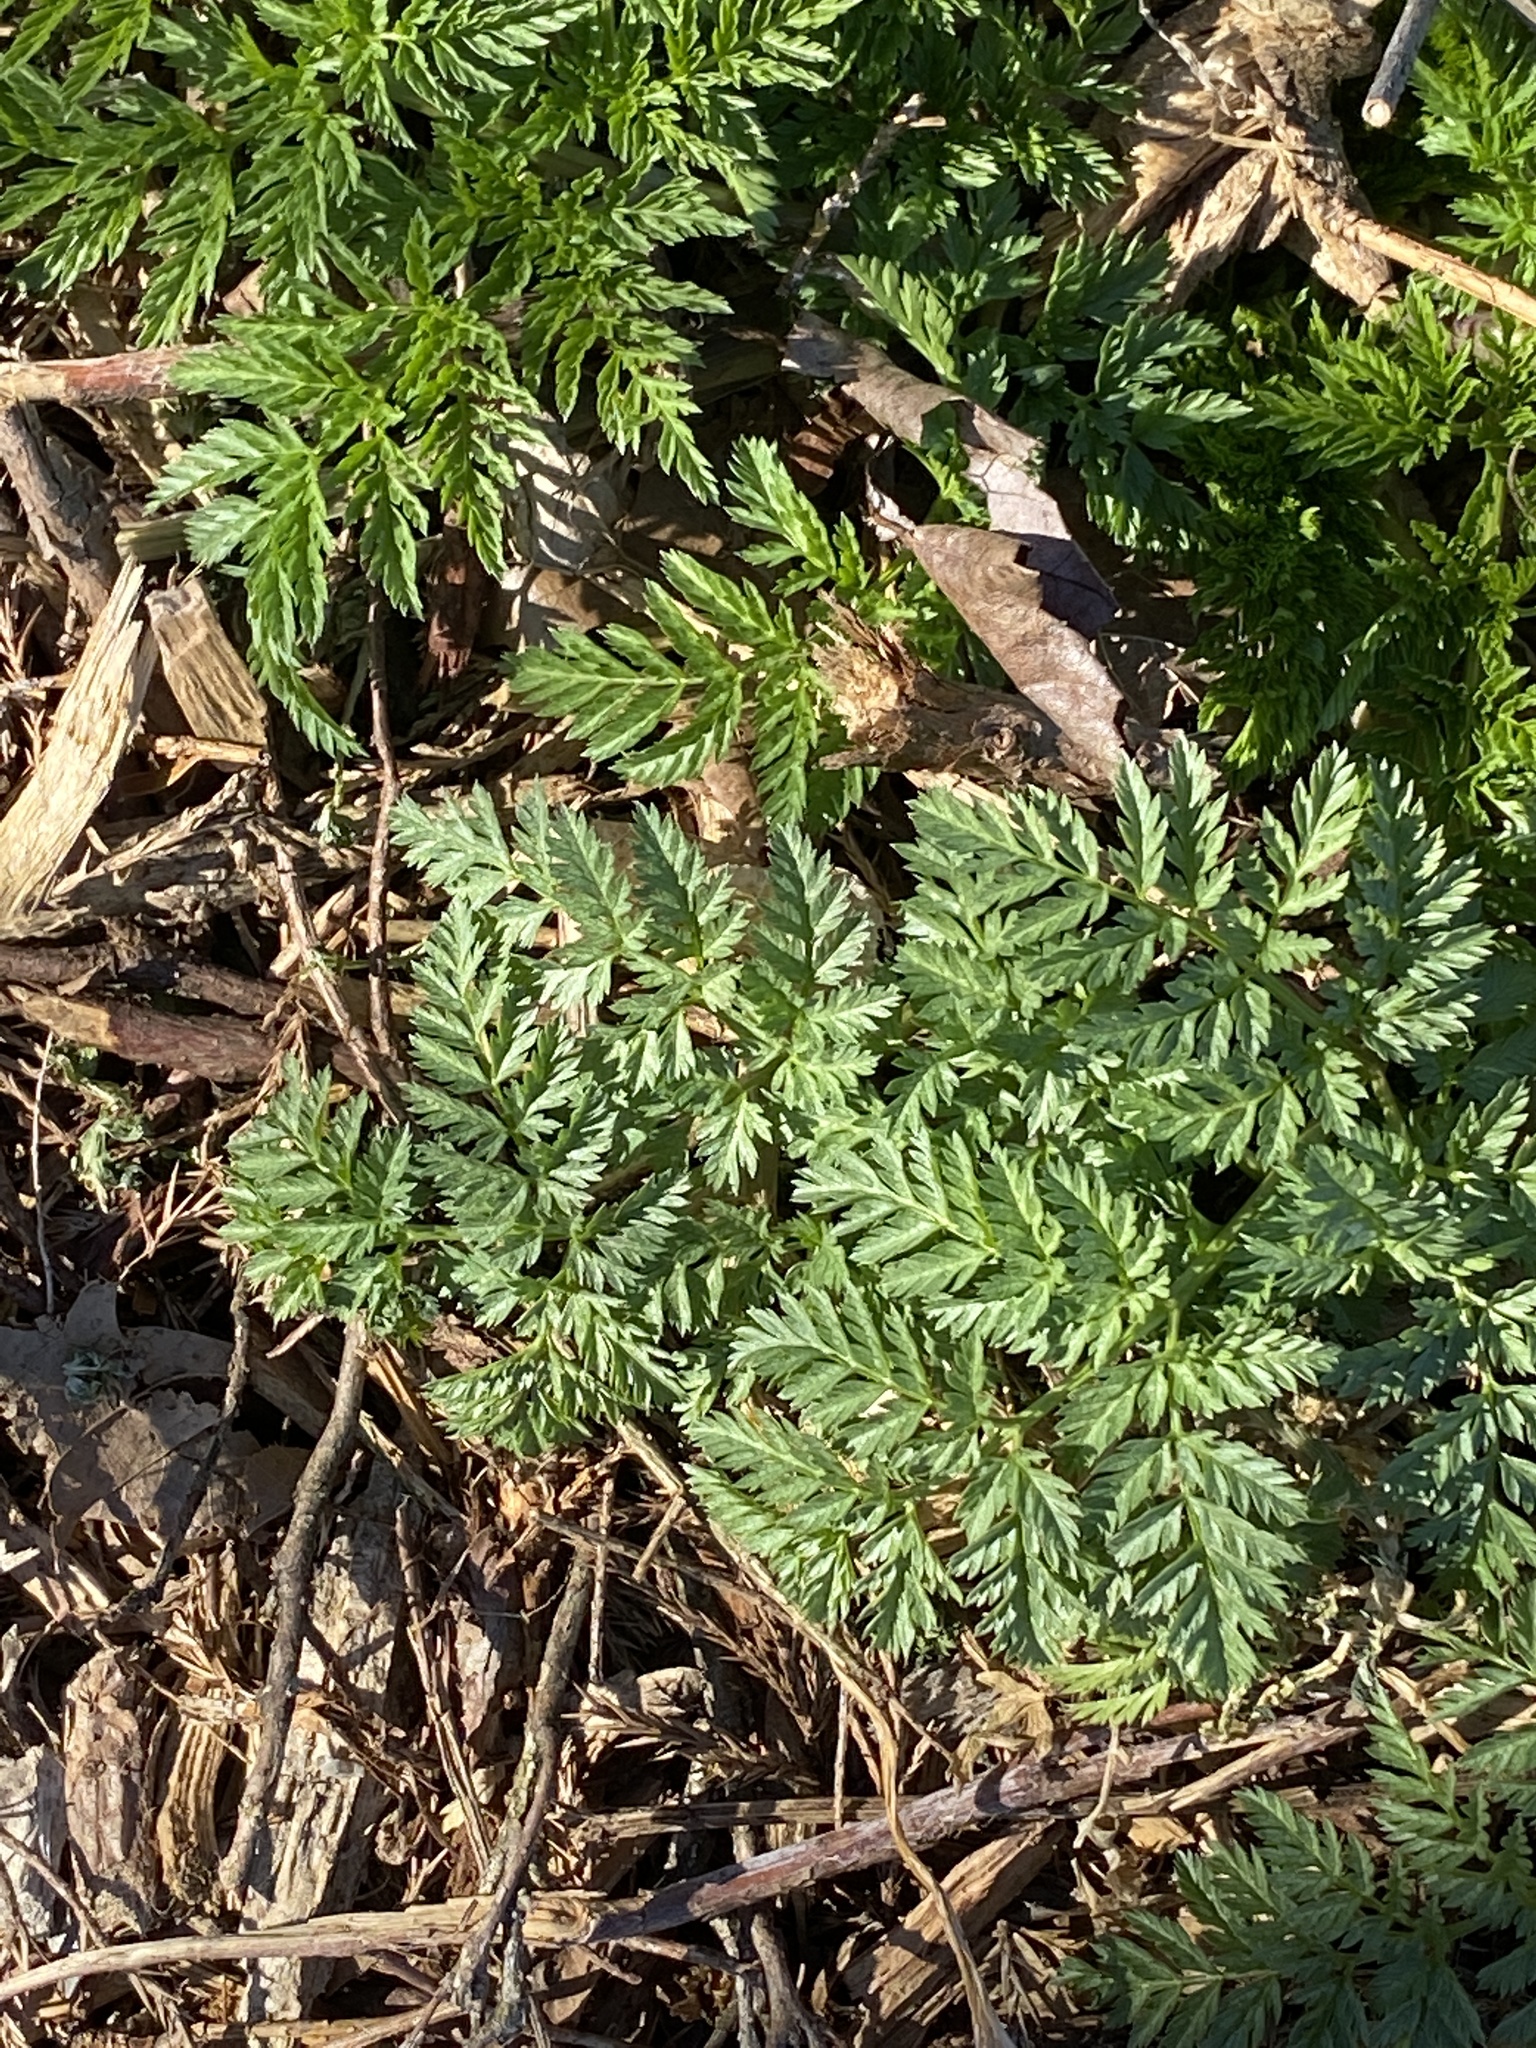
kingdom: Plantae
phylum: Tracheophyta
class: Magnoliopsida
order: Apiales
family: Apiaceae
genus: Conium
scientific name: Conium maculatum
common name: Hemlock
